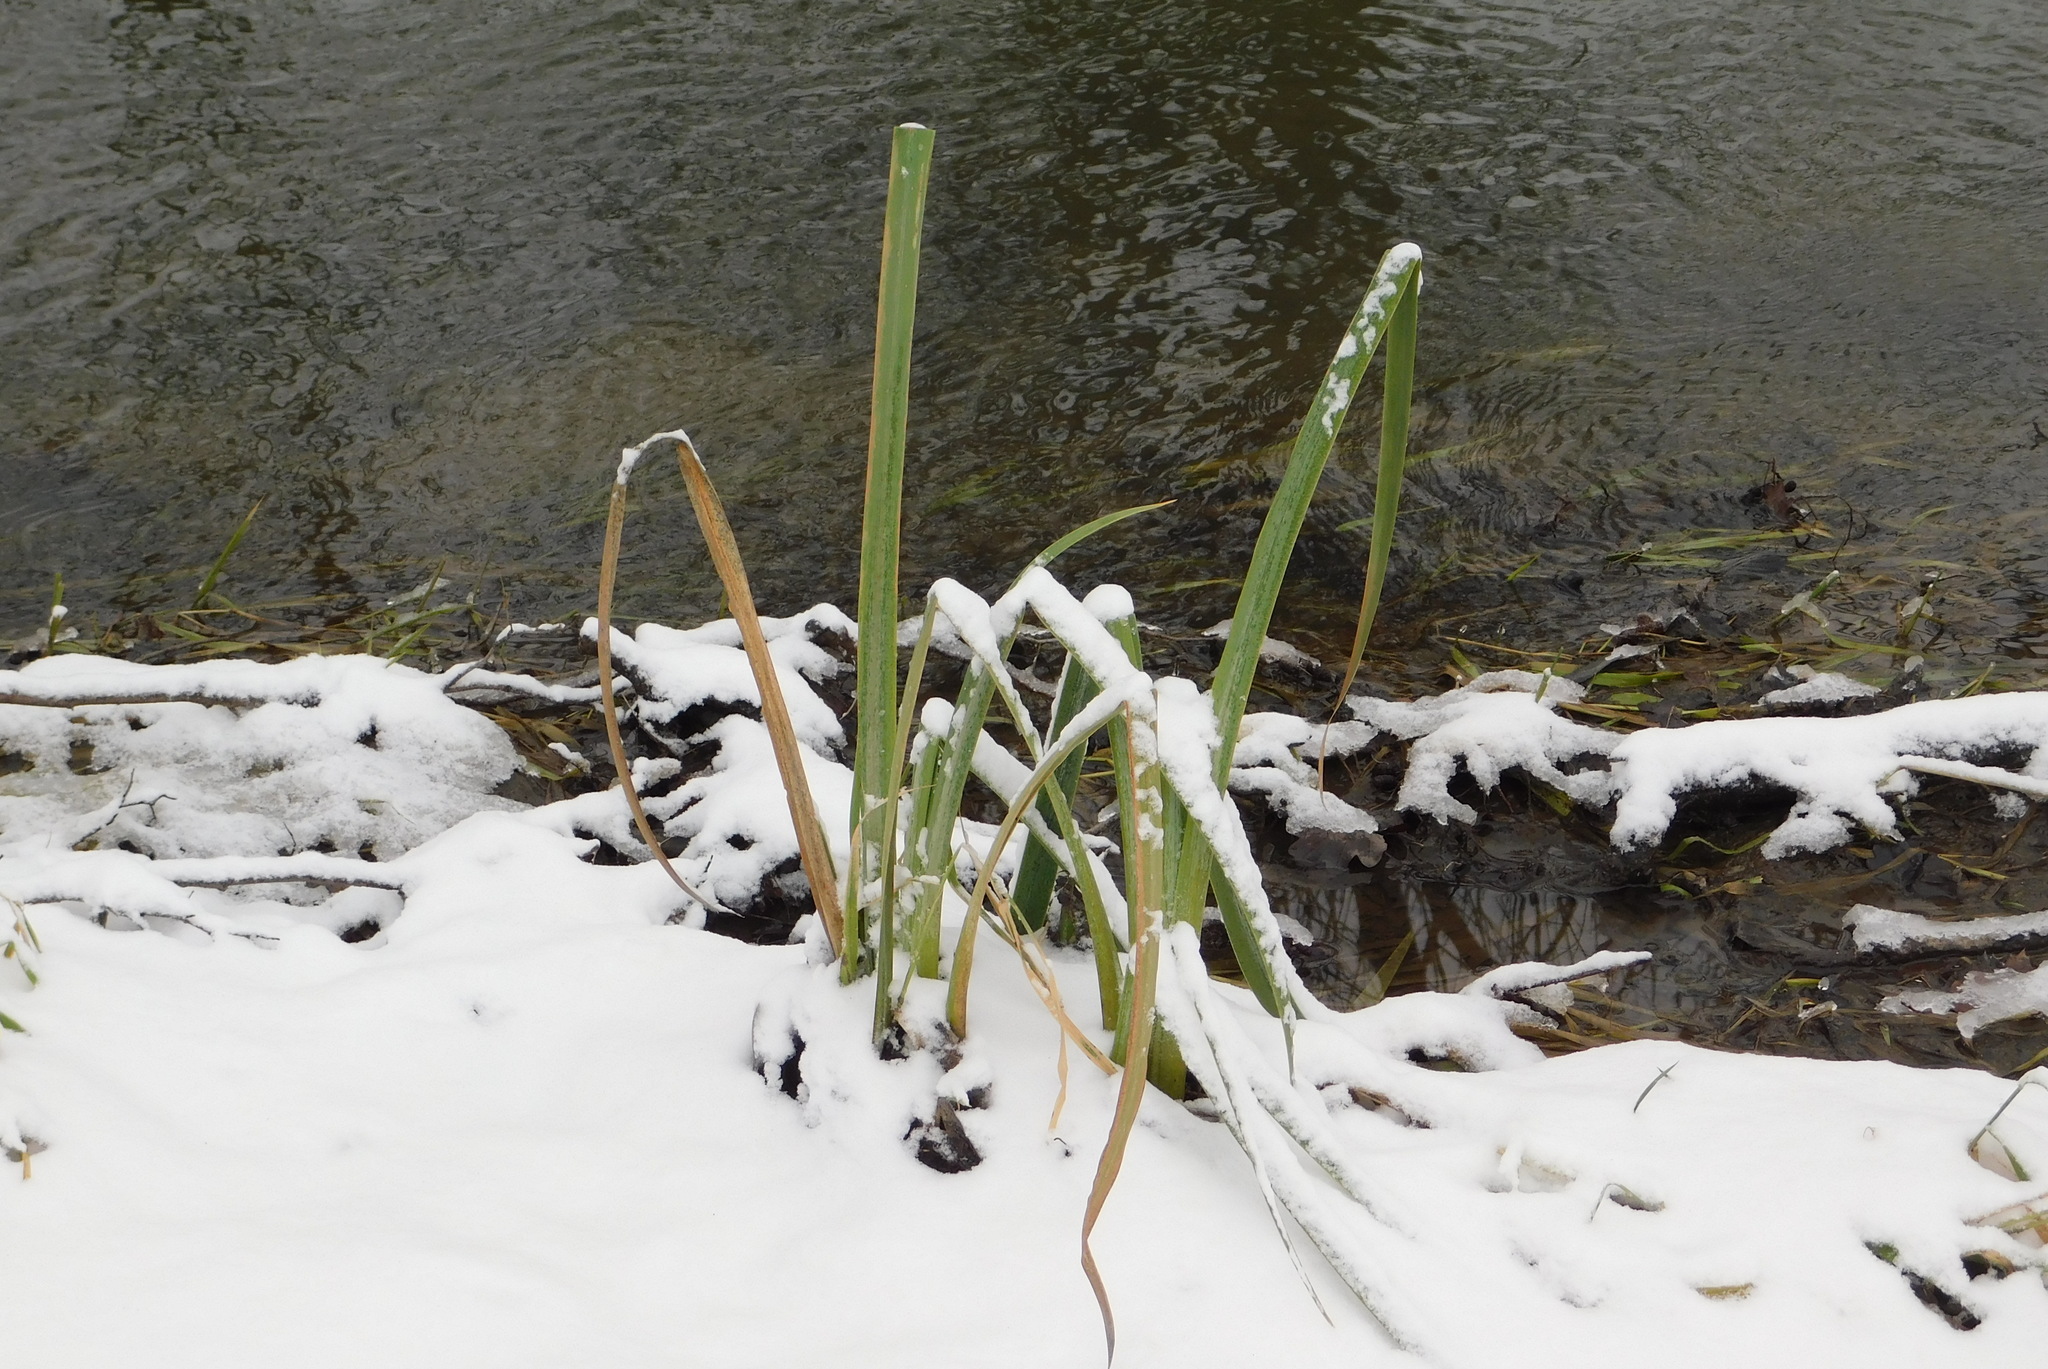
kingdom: Plantae
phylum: Tracheophyta
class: Liliopsida
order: Asparagales
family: Iridaceae
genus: Iris
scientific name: Iris pseudacorus
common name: Yellow flag
